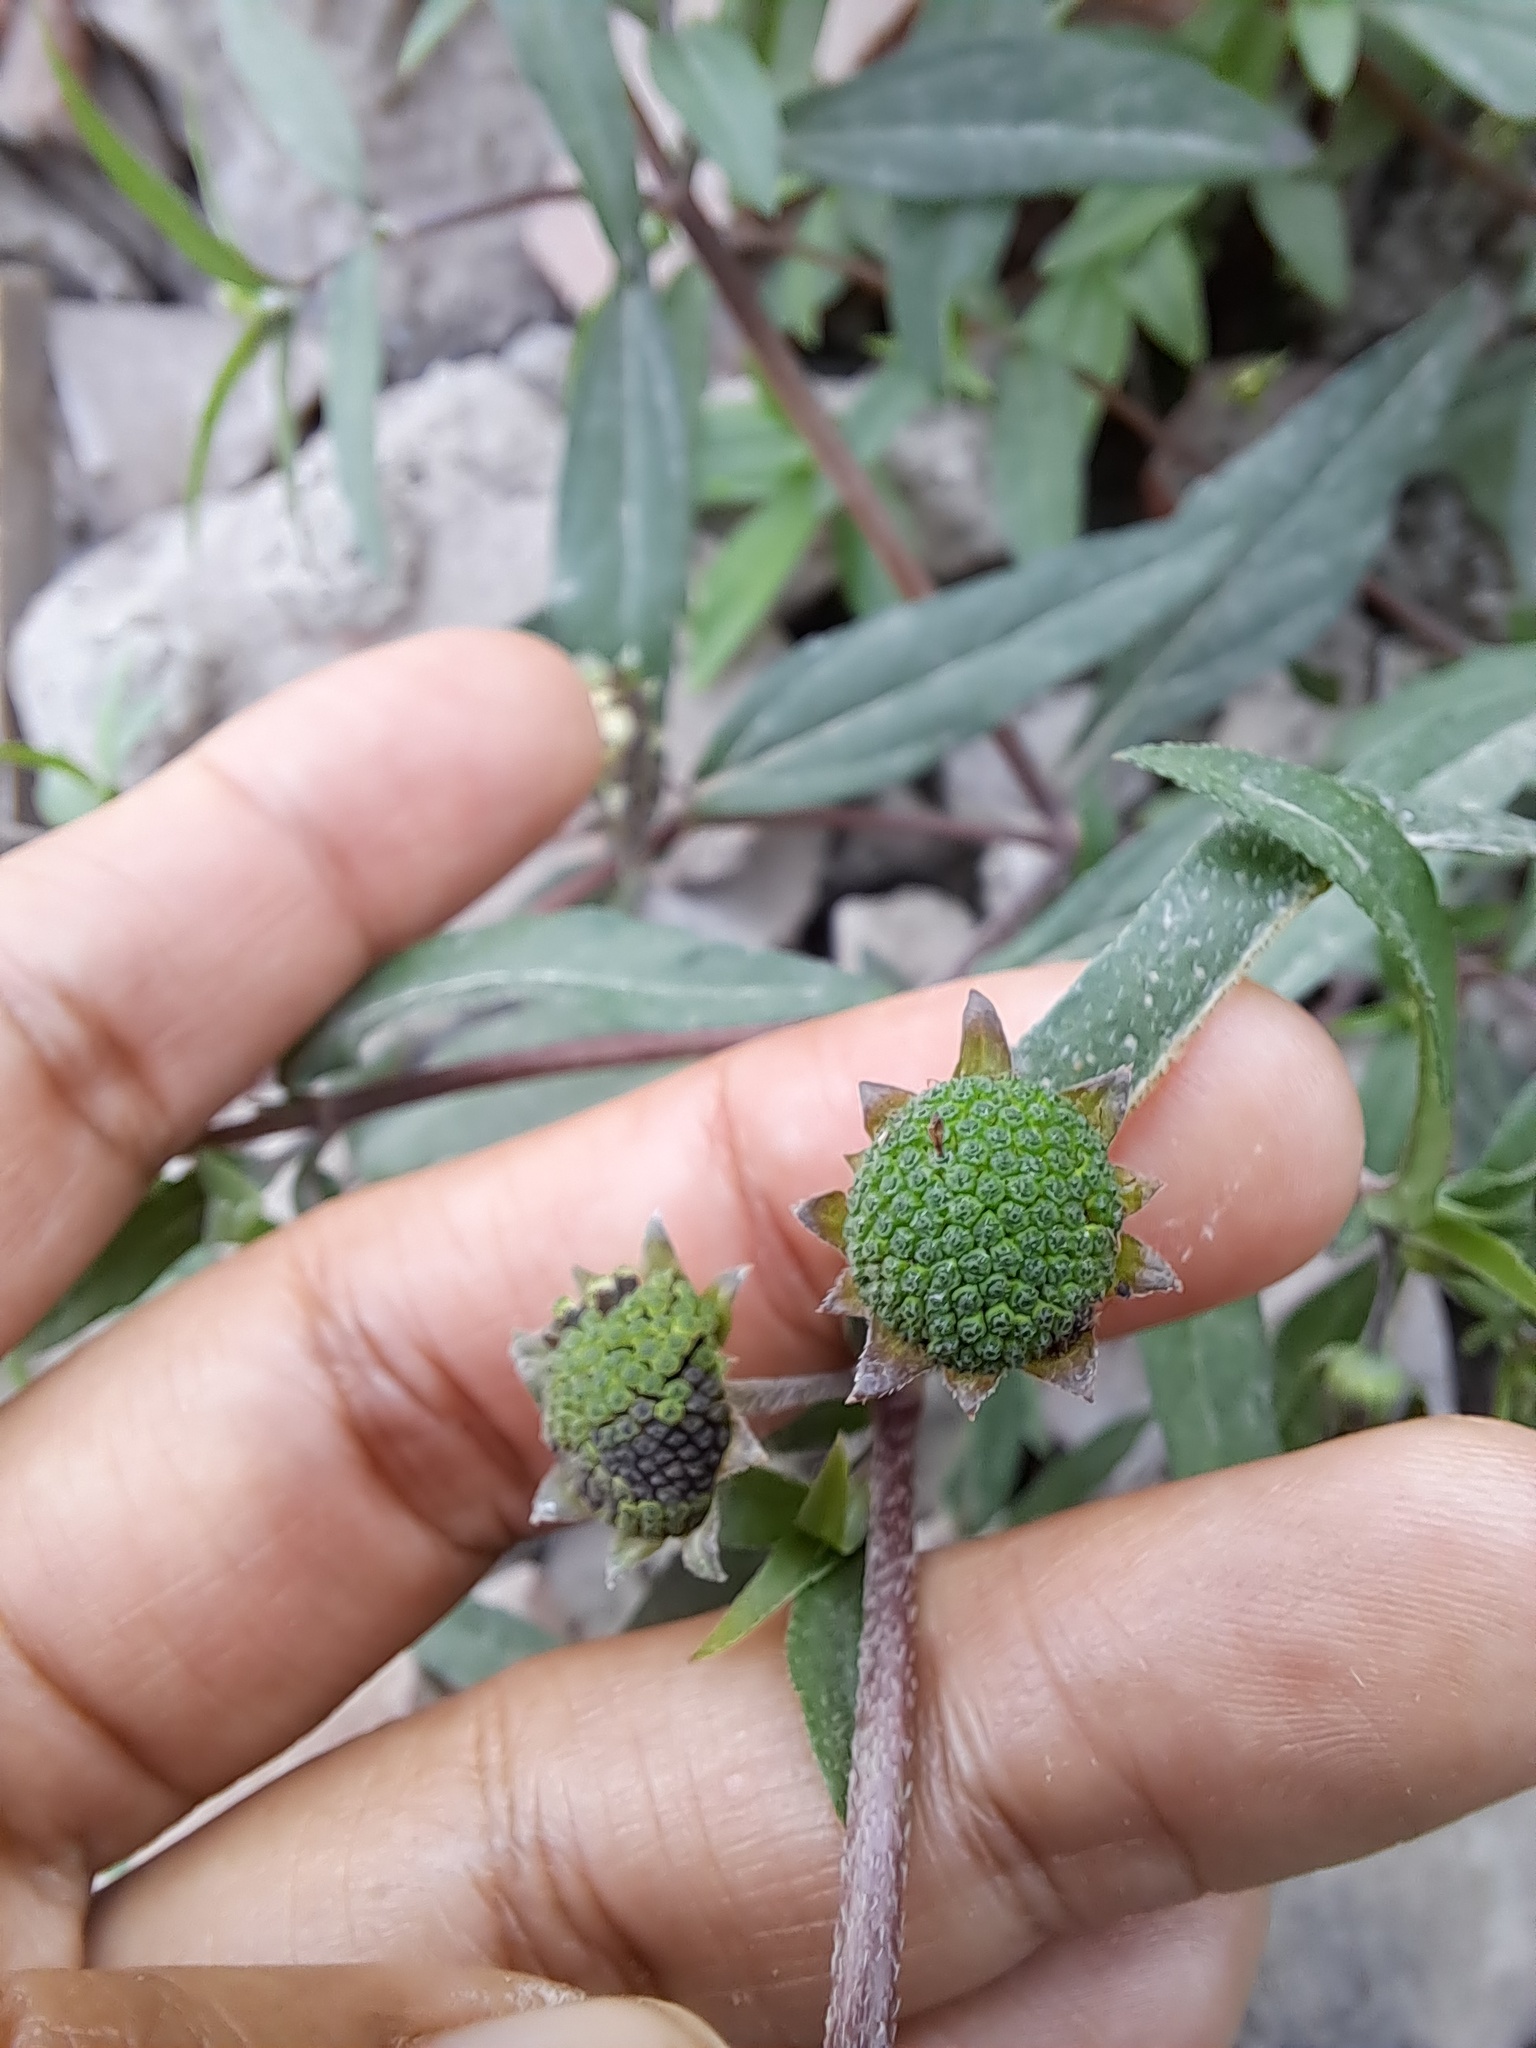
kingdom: Plantae
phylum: Tracheophyta
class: Magnoliopsida
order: Asterales
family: Asteraceae
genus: Eclipta
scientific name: Eclipta prostrata
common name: False daisy
